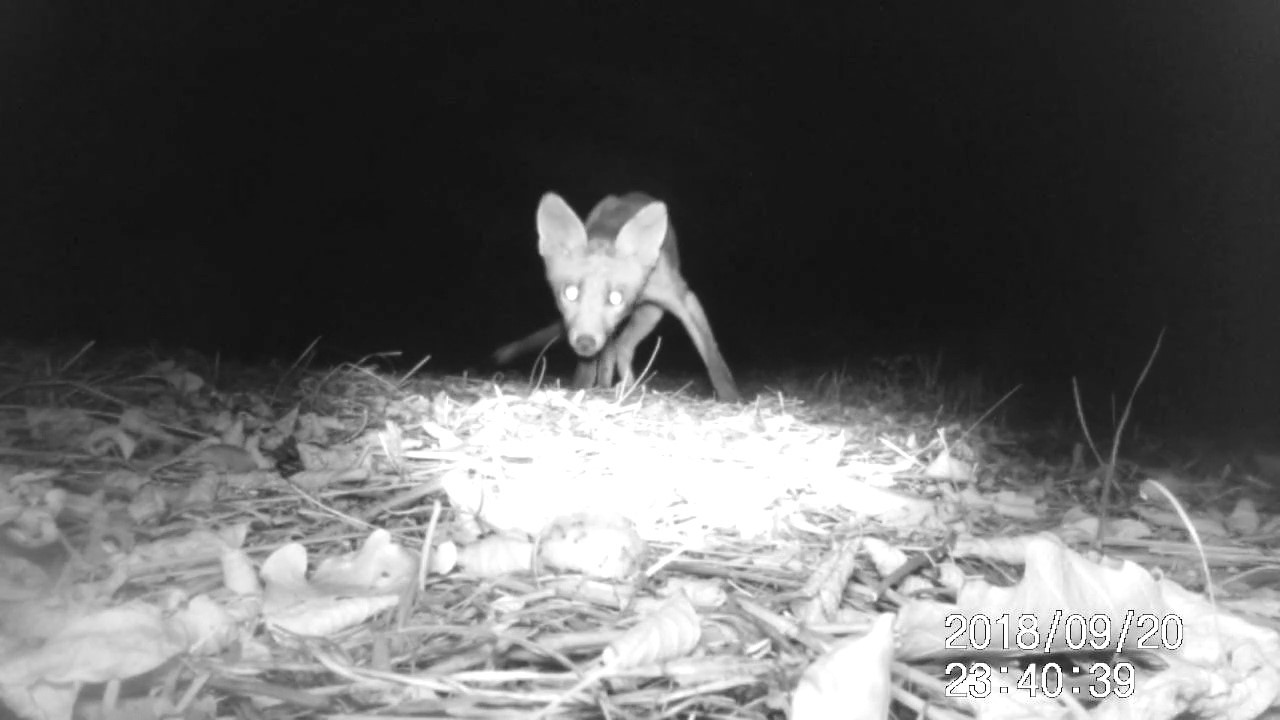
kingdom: Animalia
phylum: Chordata
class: Mammalia
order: Carnivora
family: Canidae
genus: Vulpes
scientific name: Vulpes vulpes
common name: Red fox
